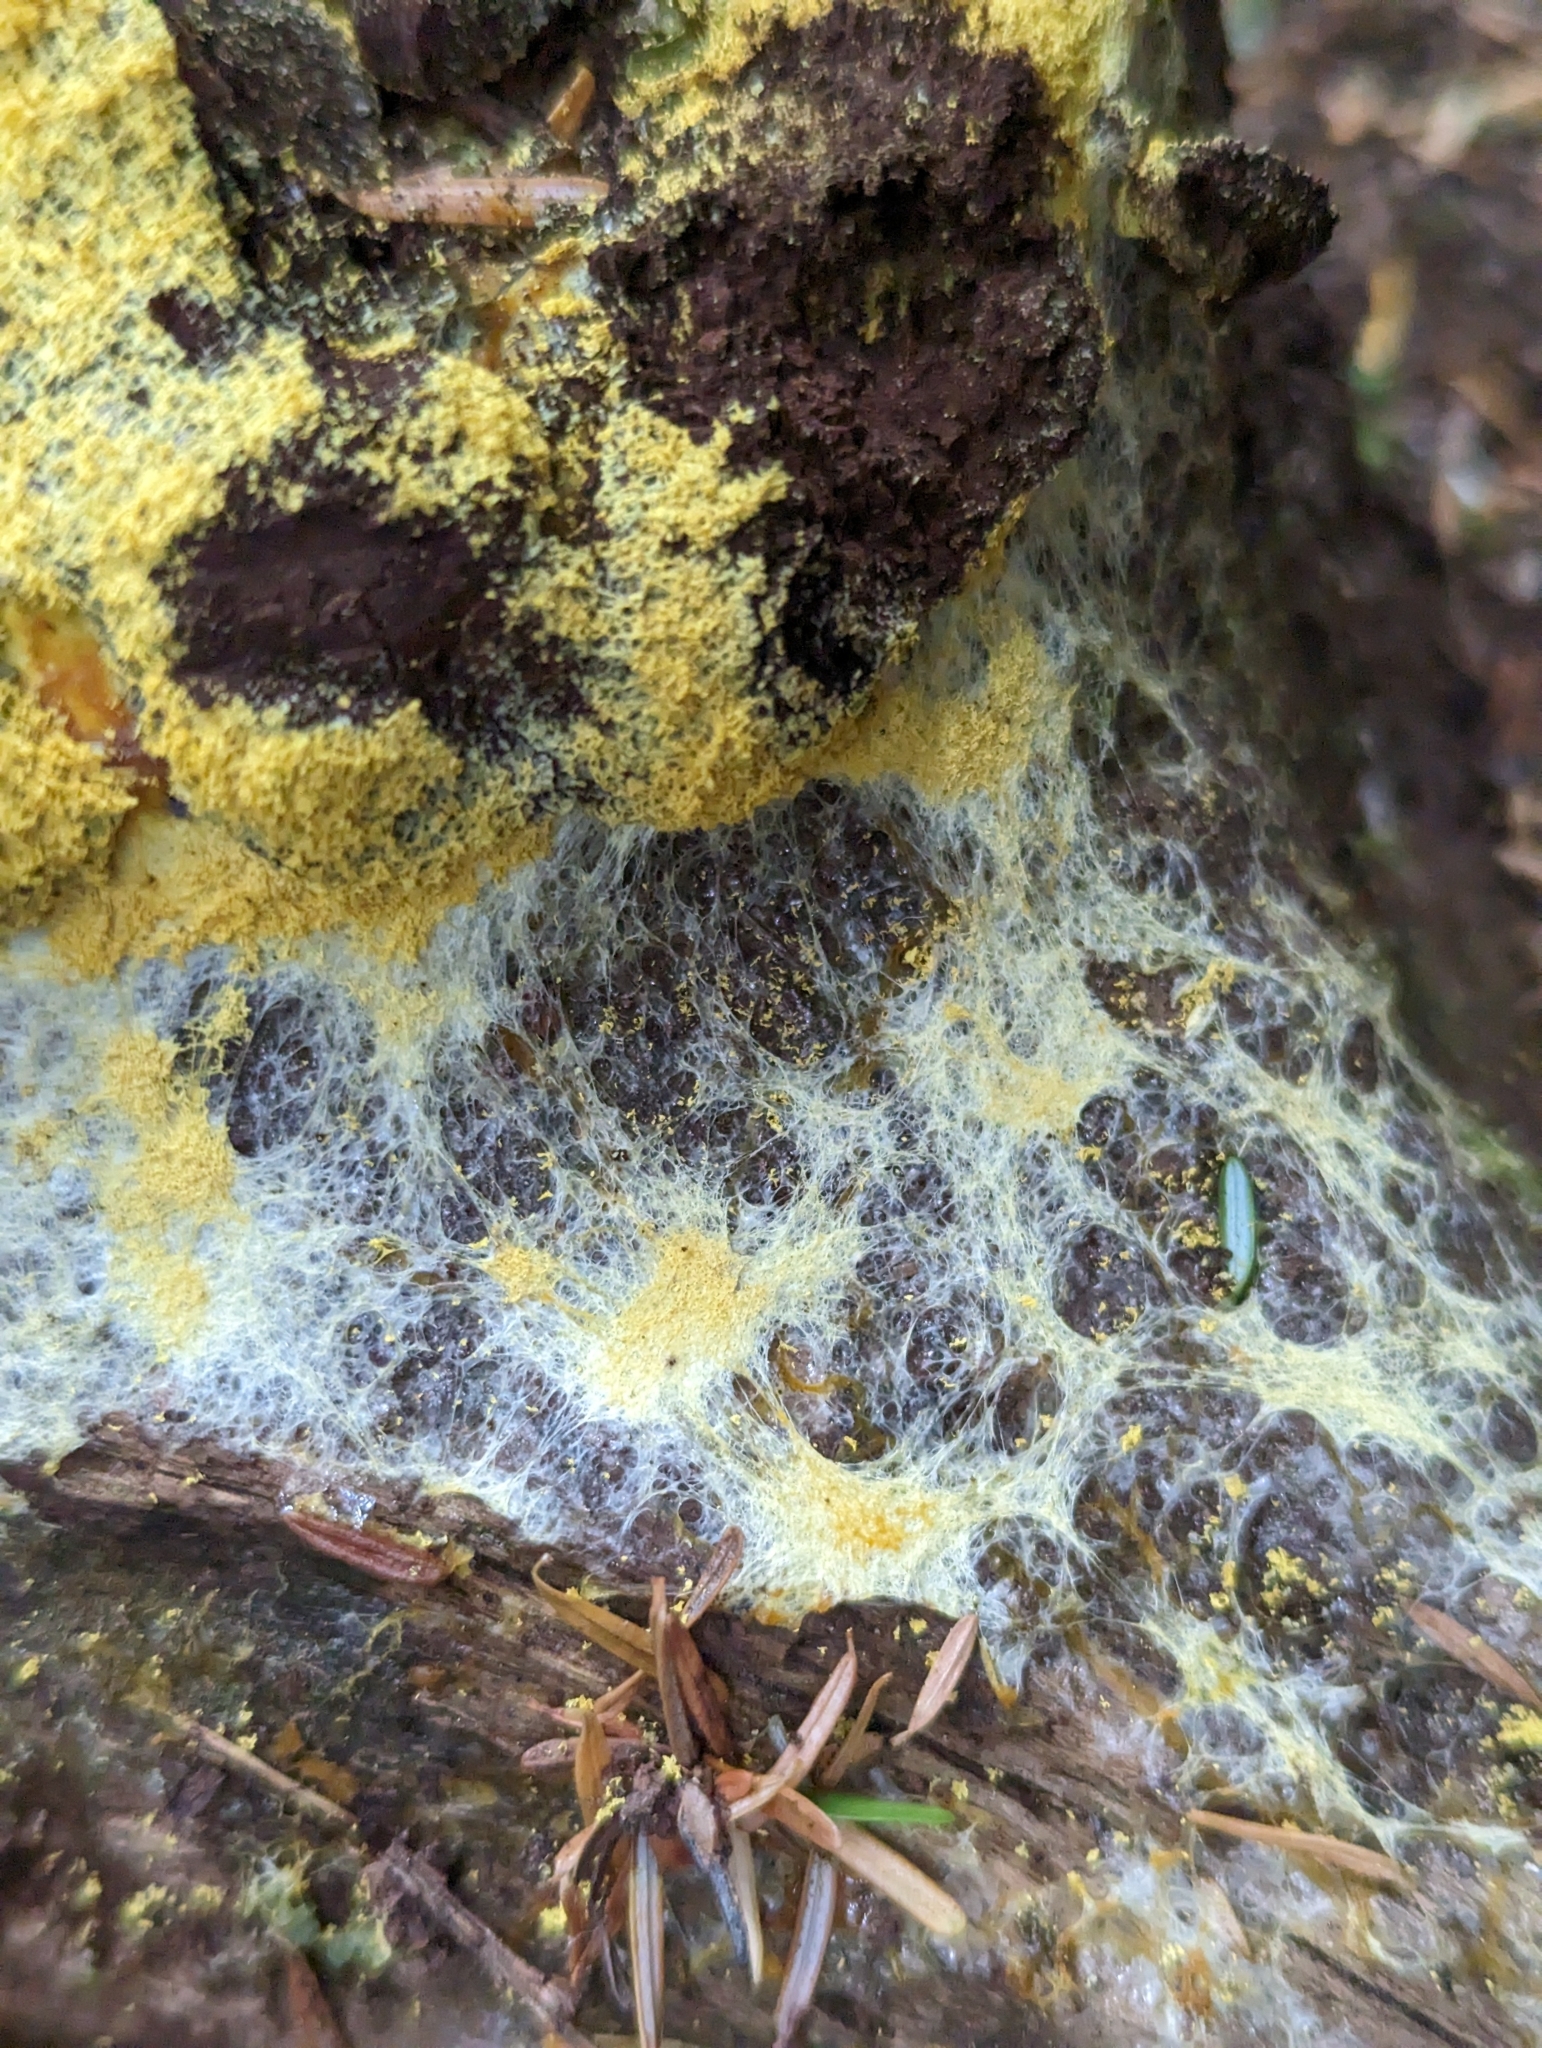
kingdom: Protozoa
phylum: Mycetozoa
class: Myxomycetes
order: Physarales
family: Physaraceae
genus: Fuligo
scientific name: Fuligo septica
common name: Dog vomit slime mold
